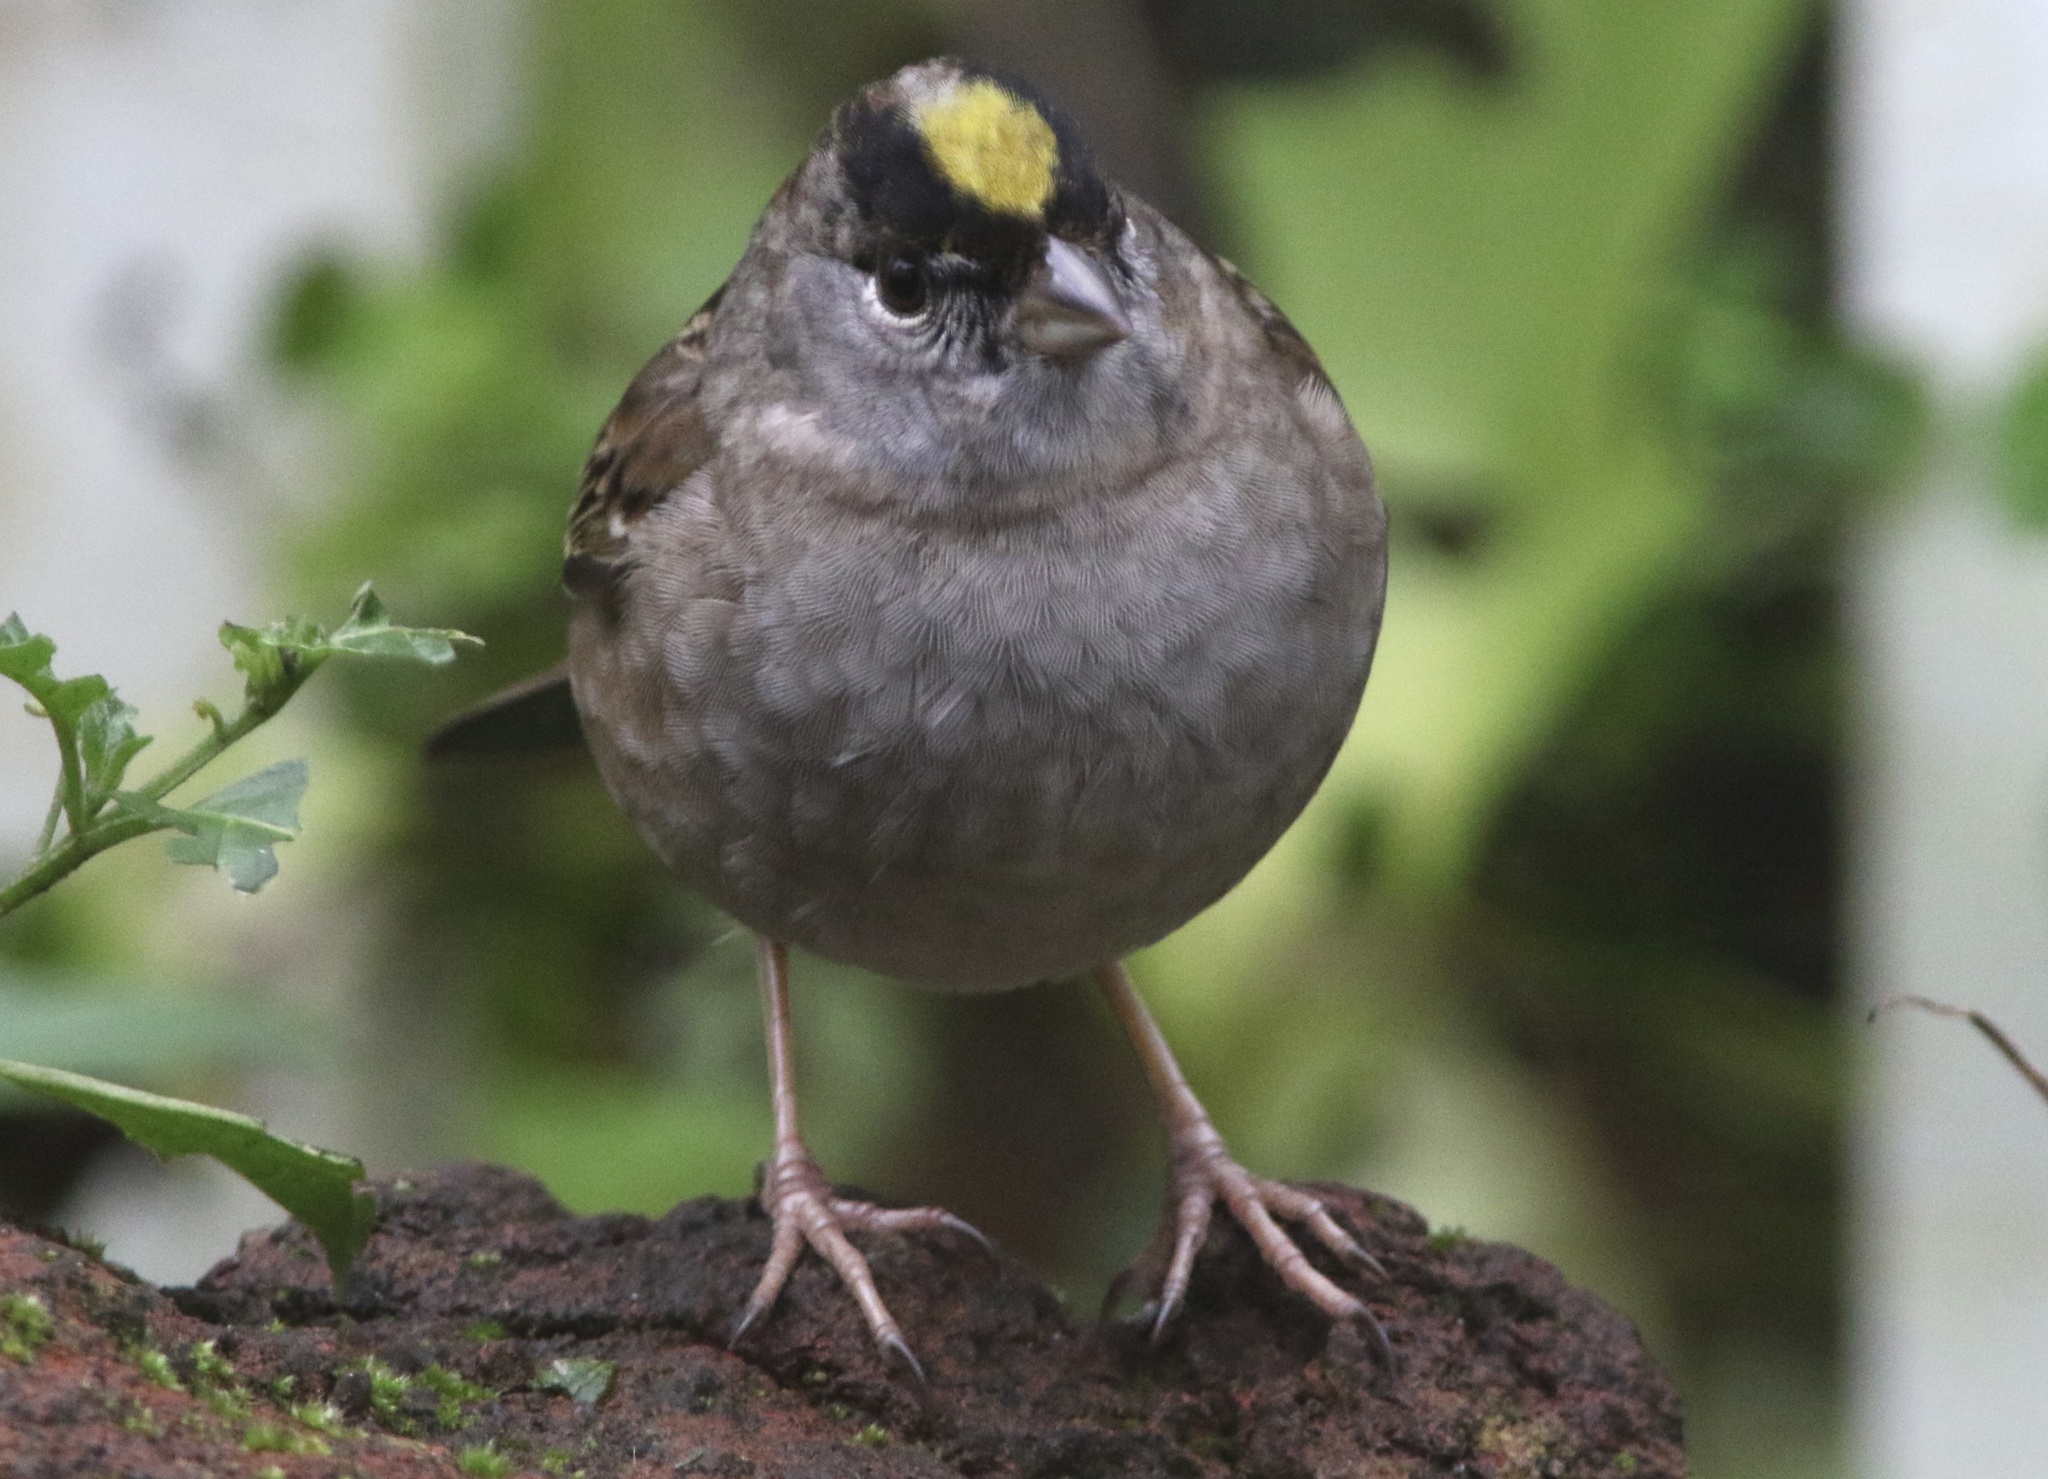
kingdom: Animalia
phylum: Chordata
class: Aves
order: Passeriformes
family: Passerellidae
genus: Zonotrichia
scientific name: Zonotrichia atricapilla
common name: Golden-crowned sparrow
